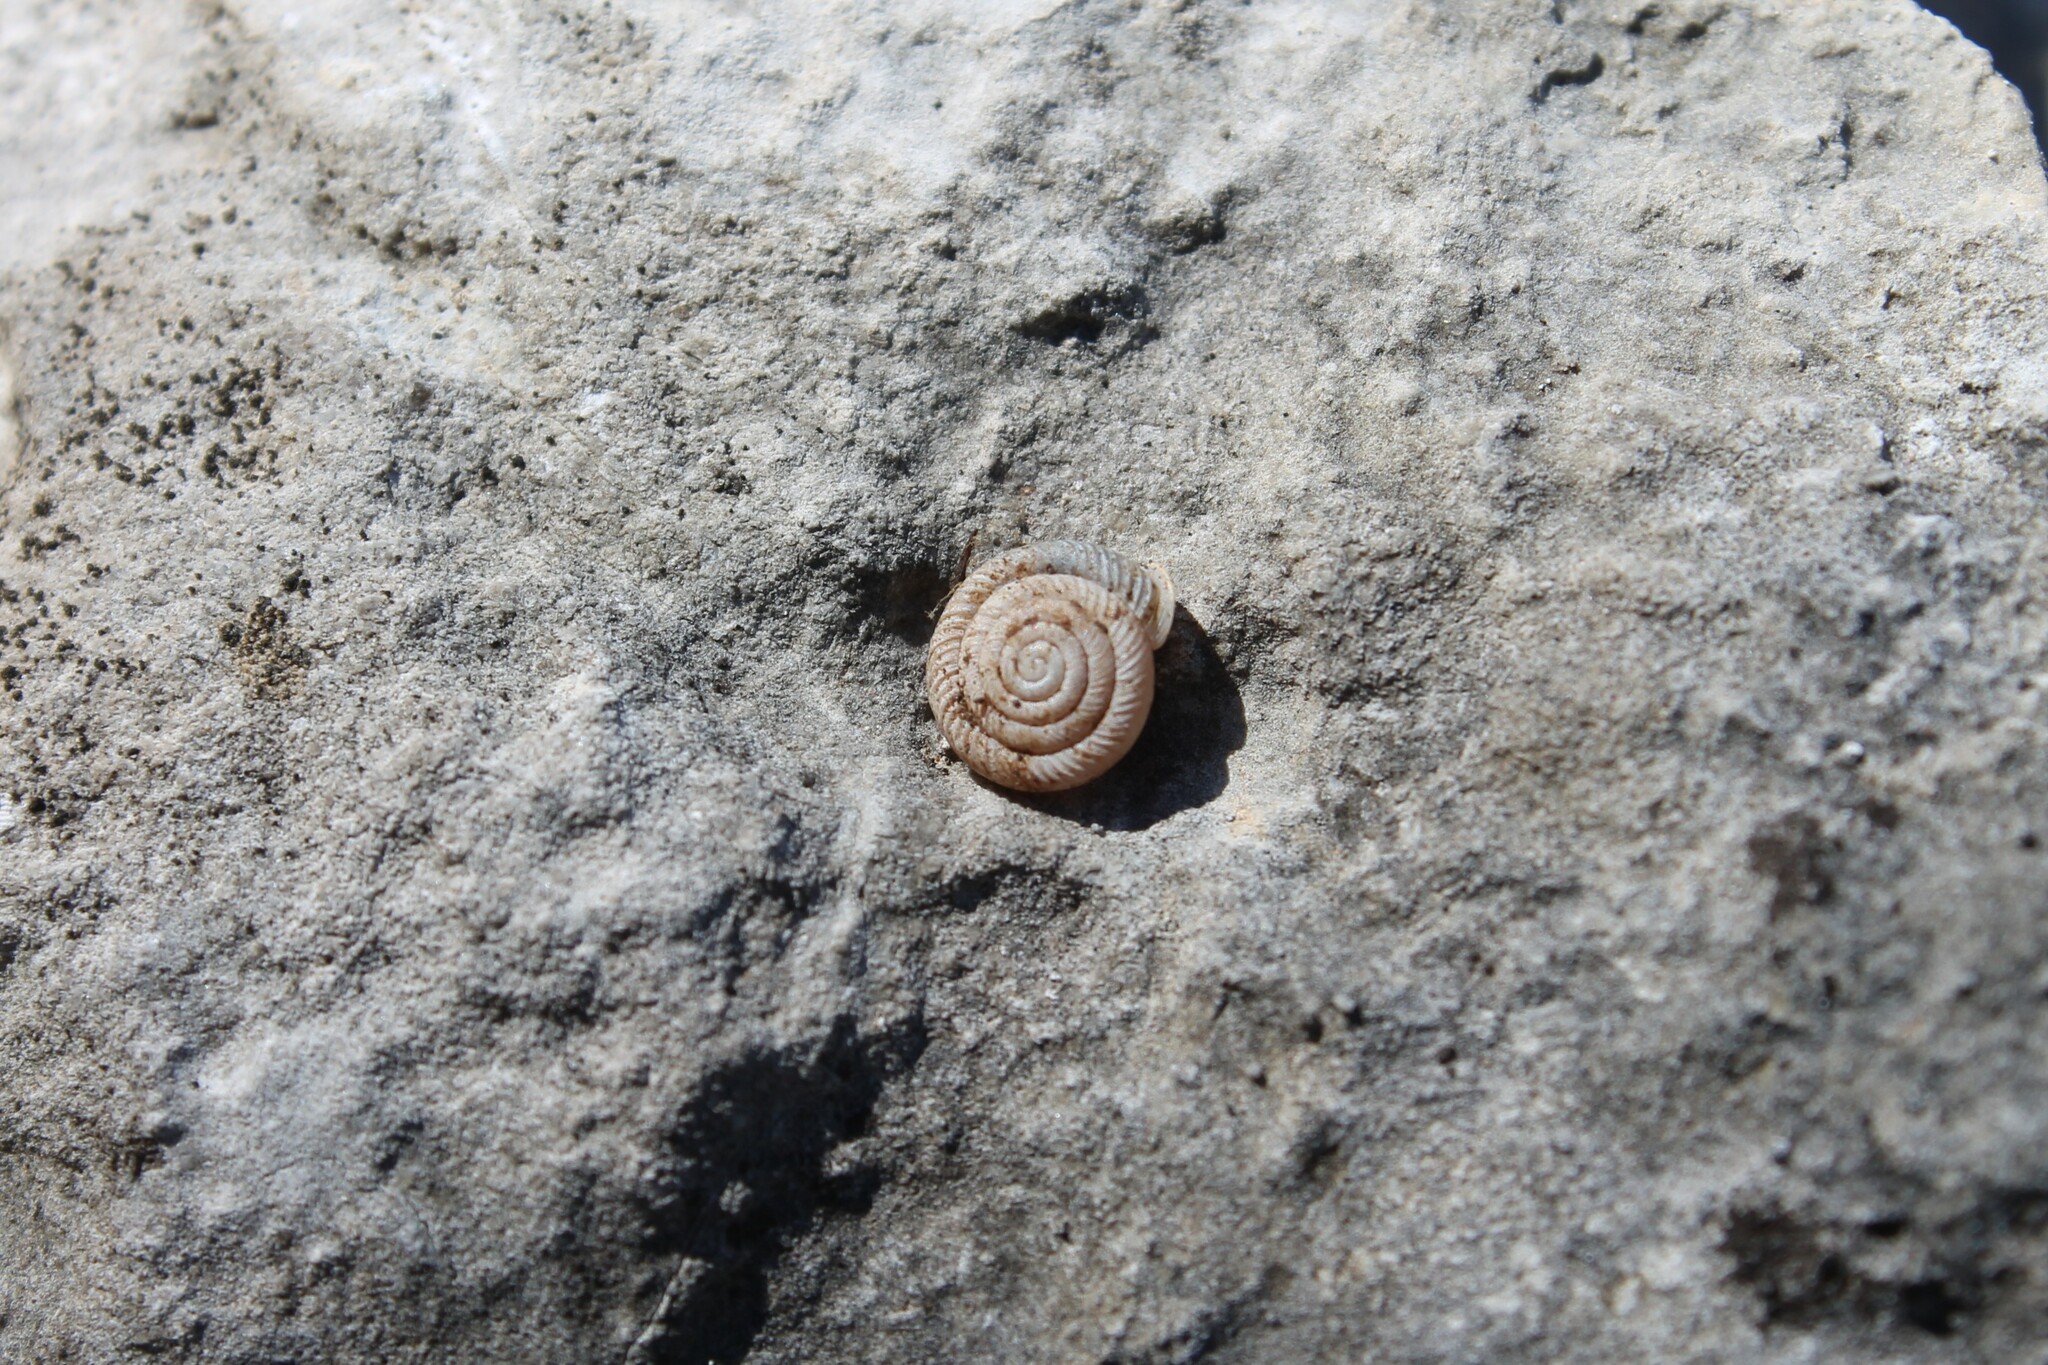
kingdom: Animalia
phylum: Mollusca
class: Gastropoda
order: Stylommatophora
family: Polygyridae
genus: Daedalochila
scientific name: Daedalochila troostiana
